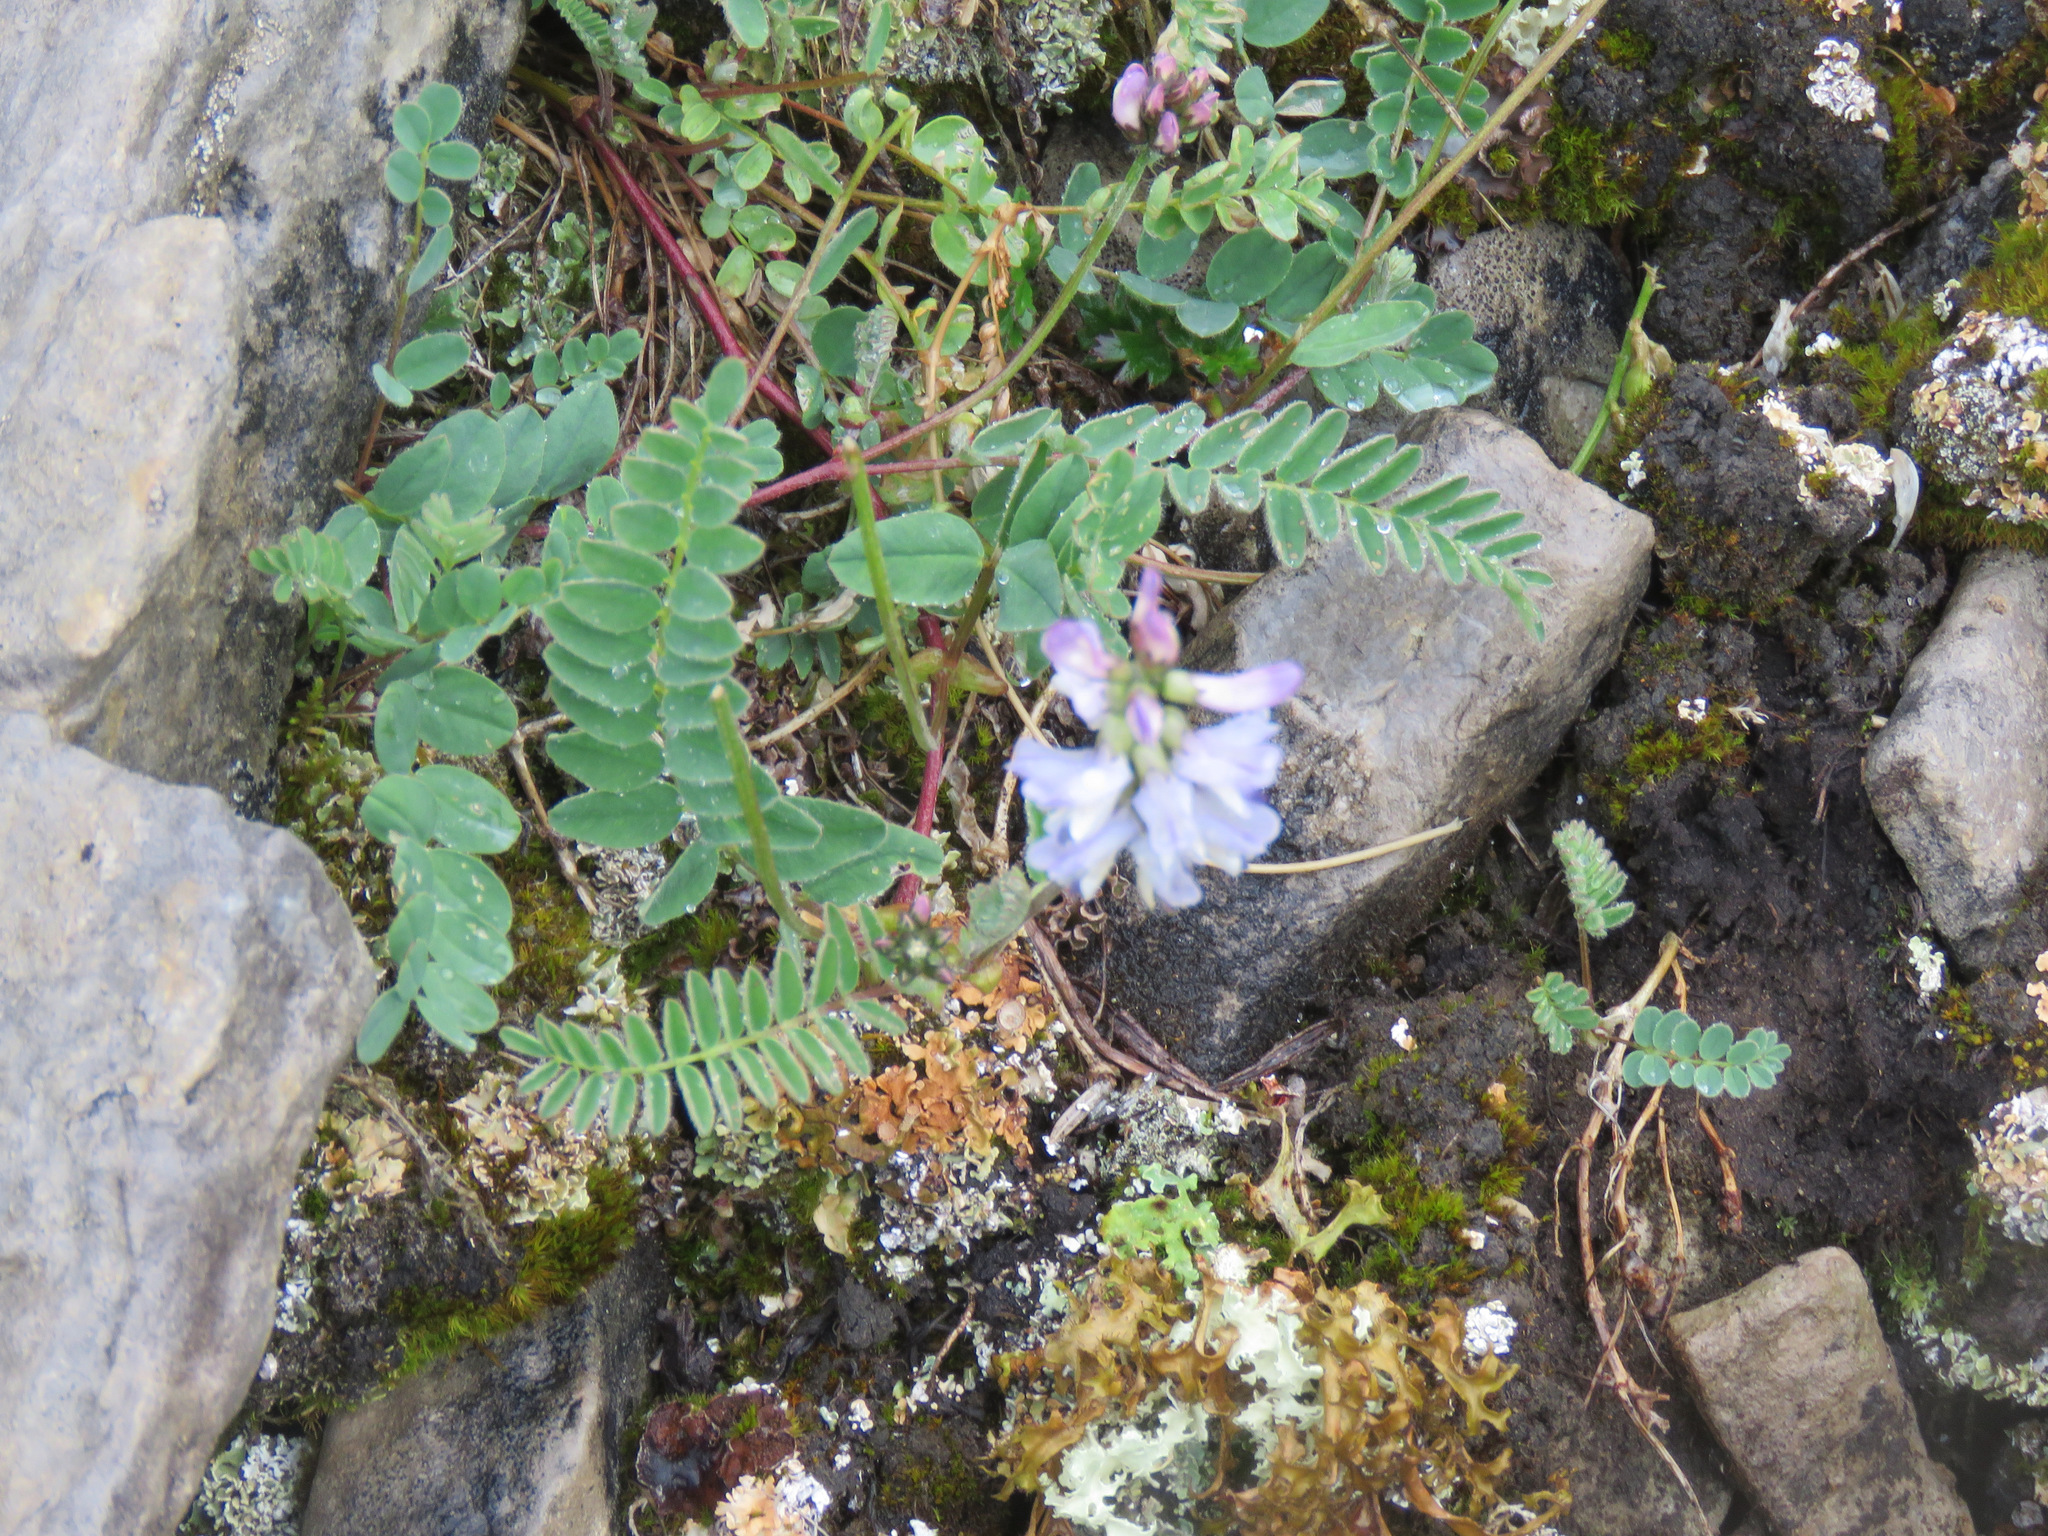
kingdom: Plantae
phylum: Tracheophyta
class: Magnoliopsida
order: Fabales
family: Fabaceae
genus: Astragalus
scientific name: Astragalus alpinus
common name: Alpine milk-vetch
